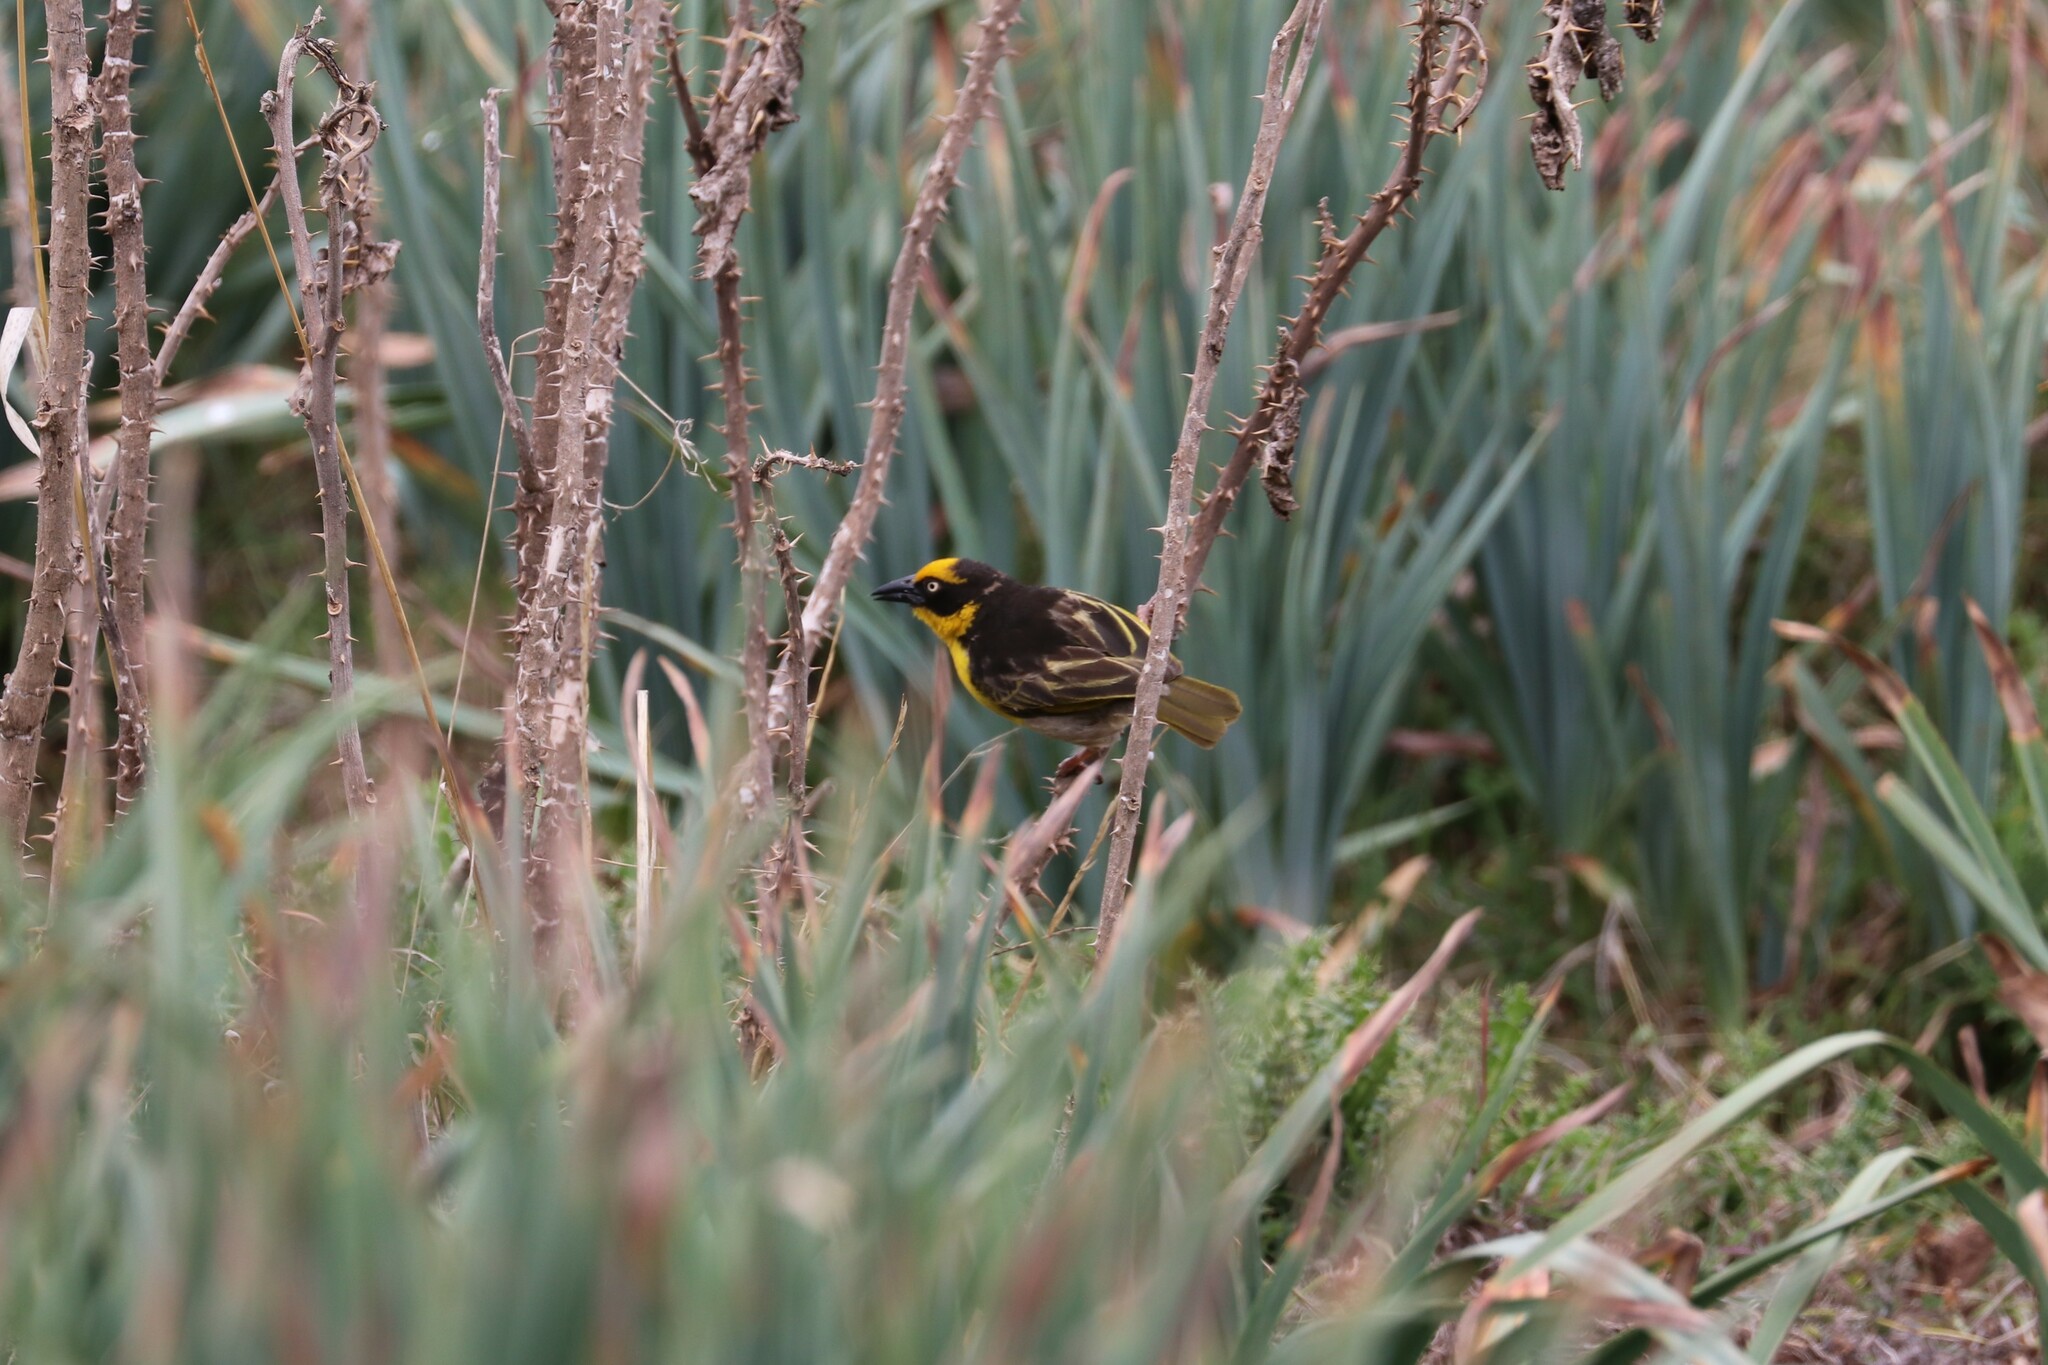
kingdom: Animalia
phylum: Chordata
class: Aves
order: Passeriformes
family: Ploceidae
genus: Ploceus
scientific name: Ploceus baglafecht
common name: Baglafecht weaver
